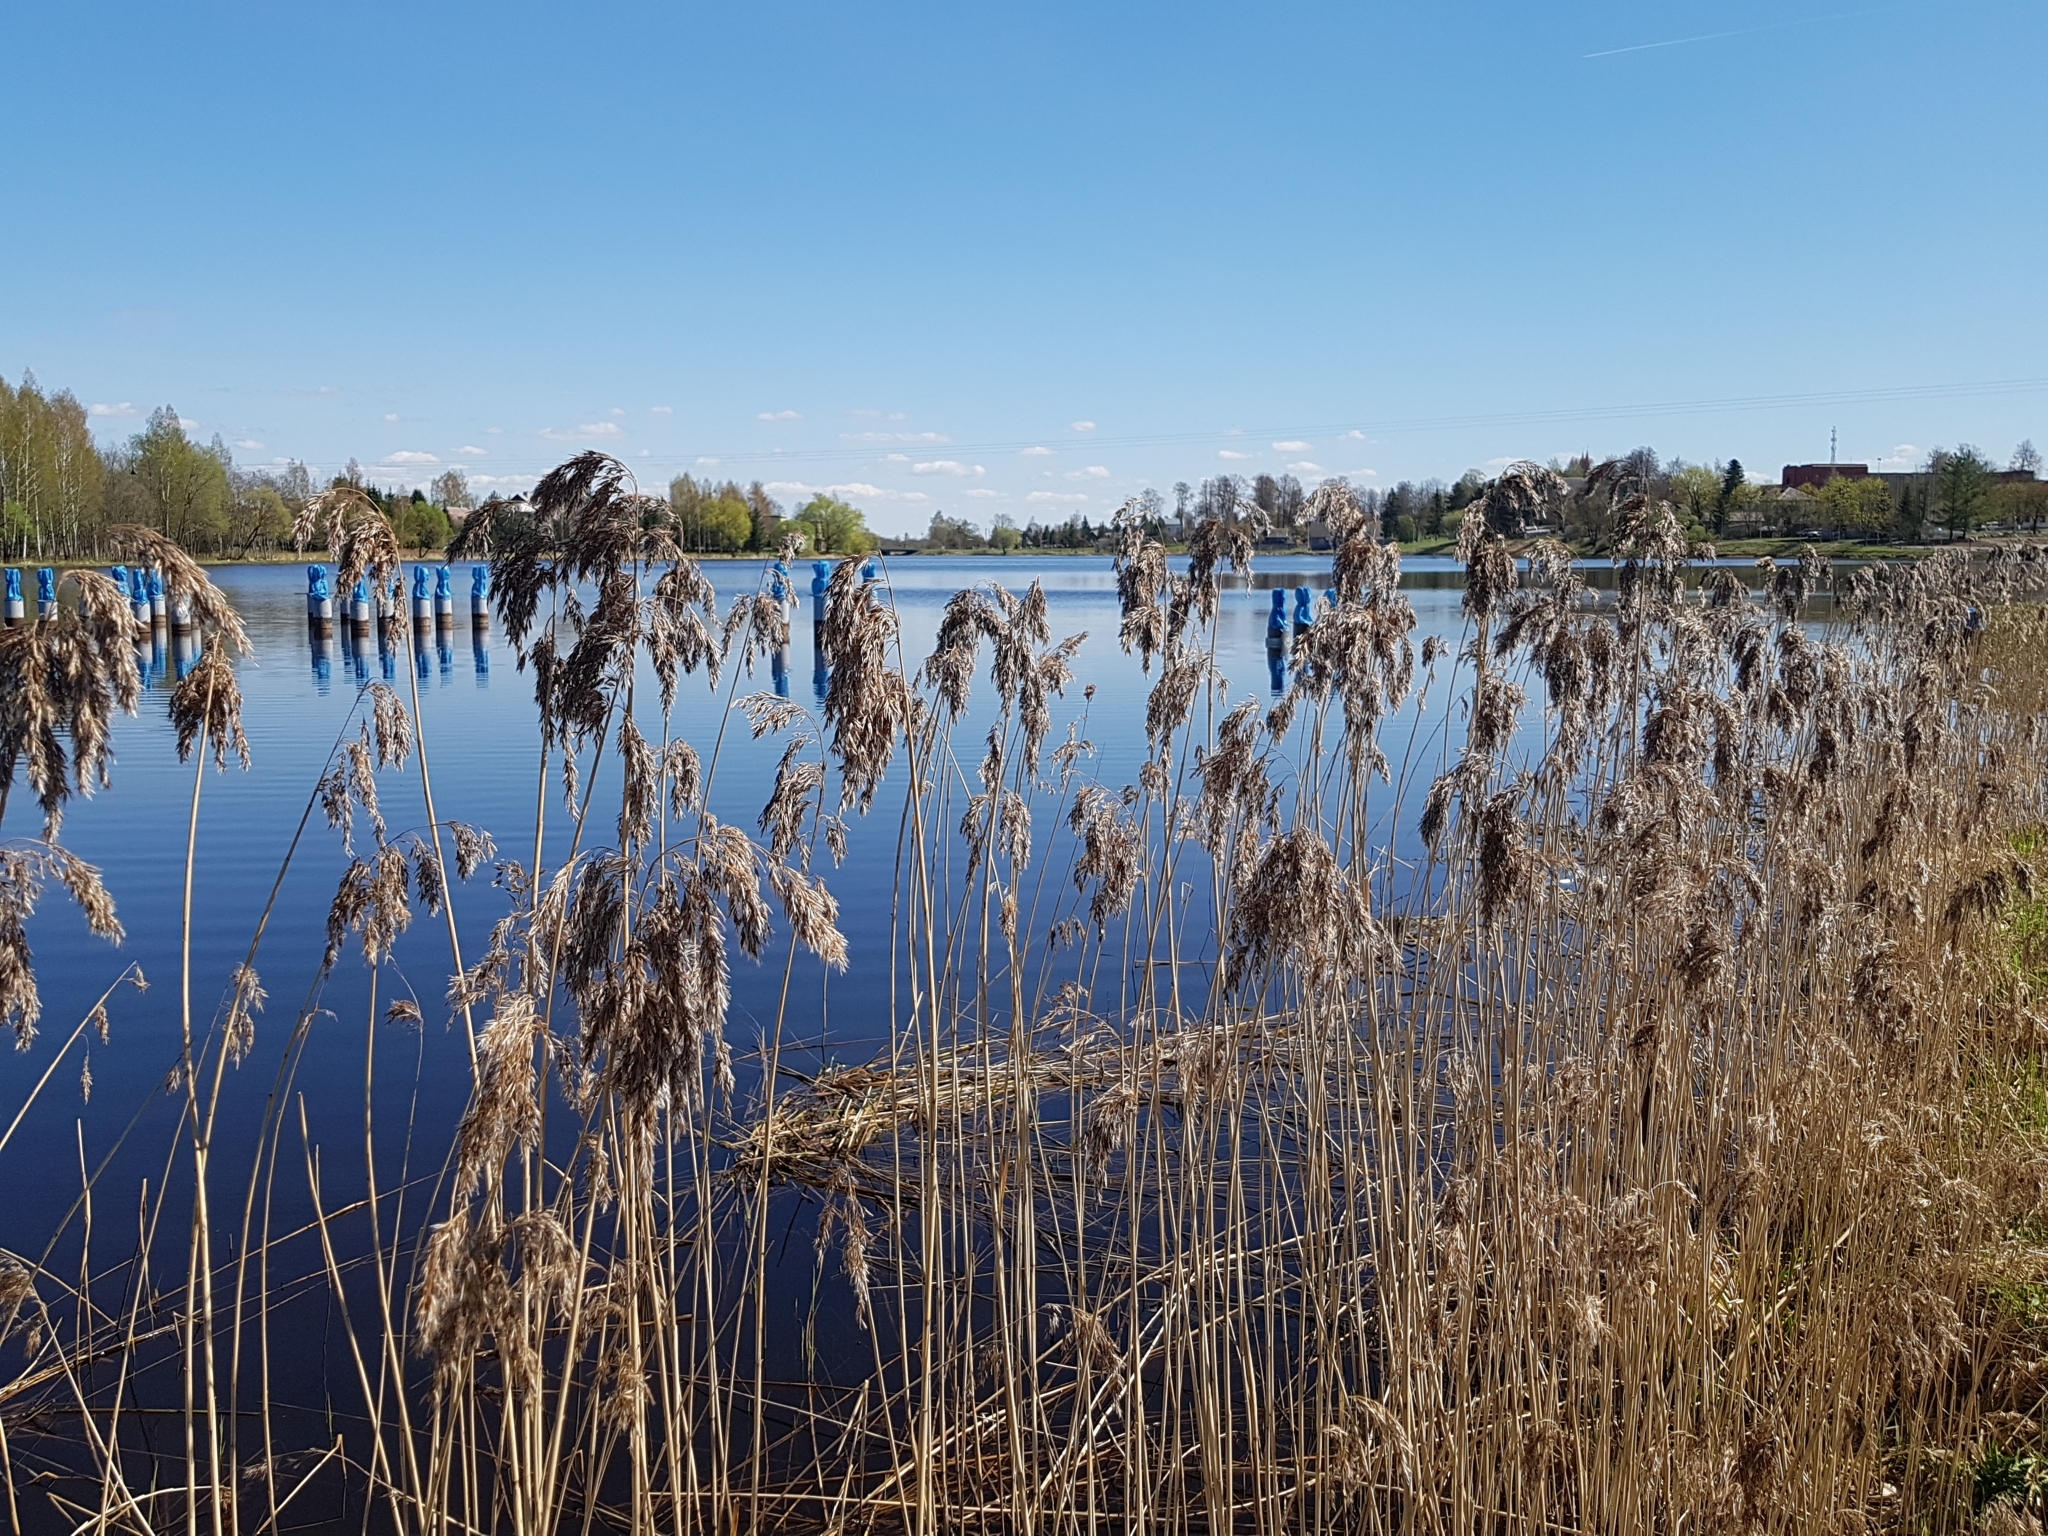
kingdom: Plantae
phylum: Tracheophyta
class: Liliopsida
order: Poales
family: Poaceae
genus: Phragmites
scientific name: Phragmites australis
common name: Common reed
